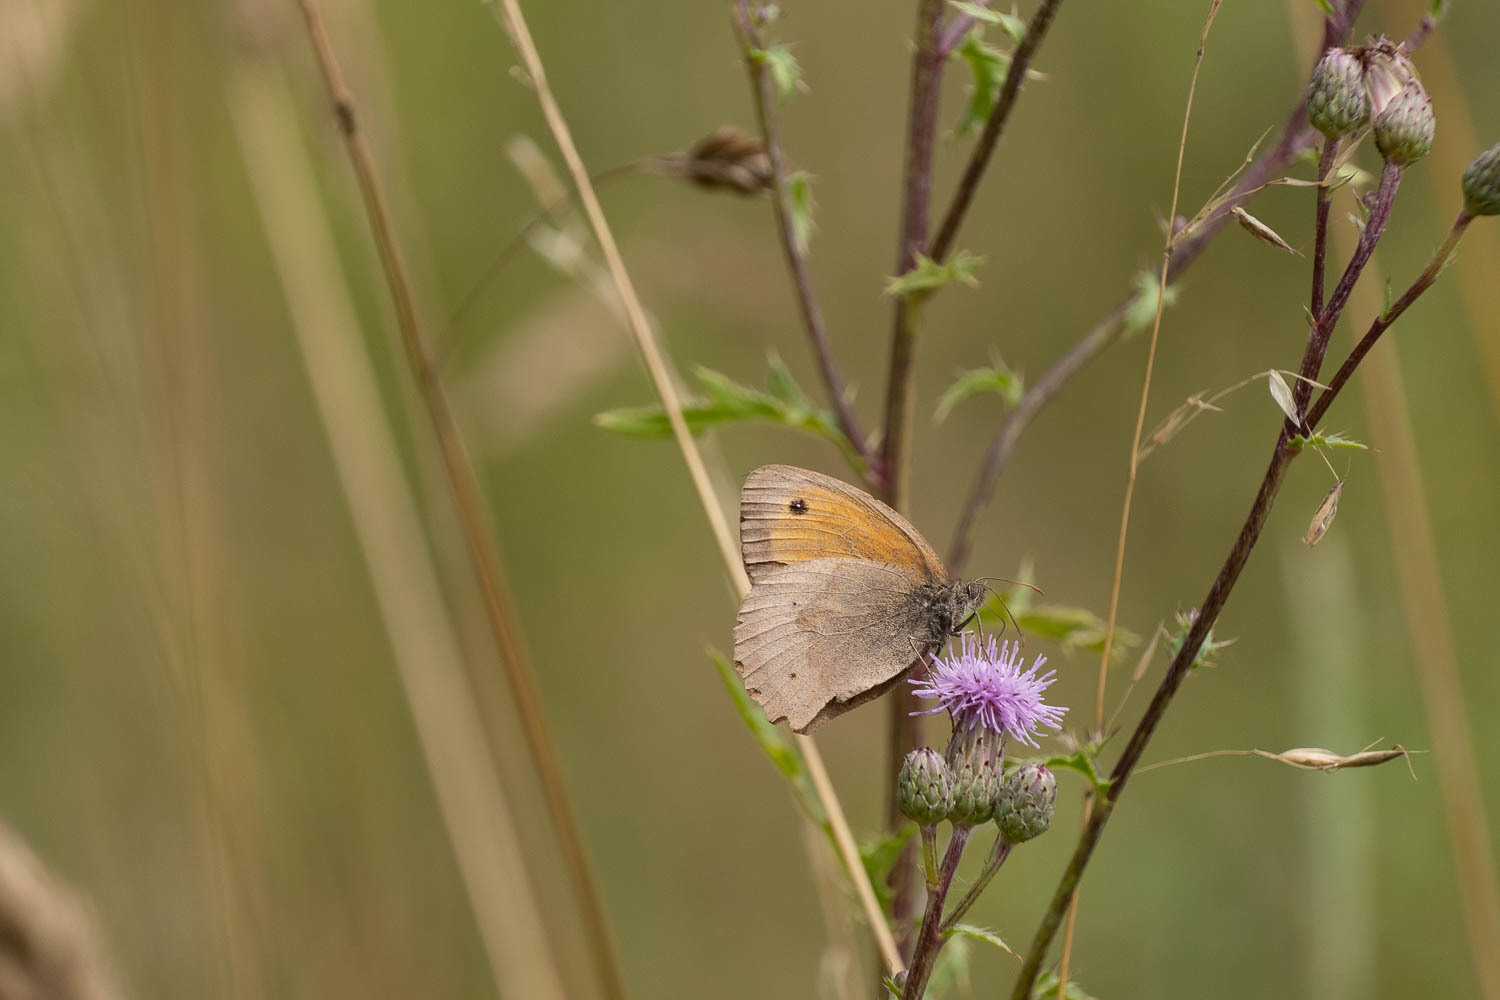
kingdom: Animalia
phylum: Arthropoda
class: Insecta
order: Lepidoptera
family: Nymphalidae
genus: Maniola
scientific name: Maniola jurtina
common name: Meadow brown
